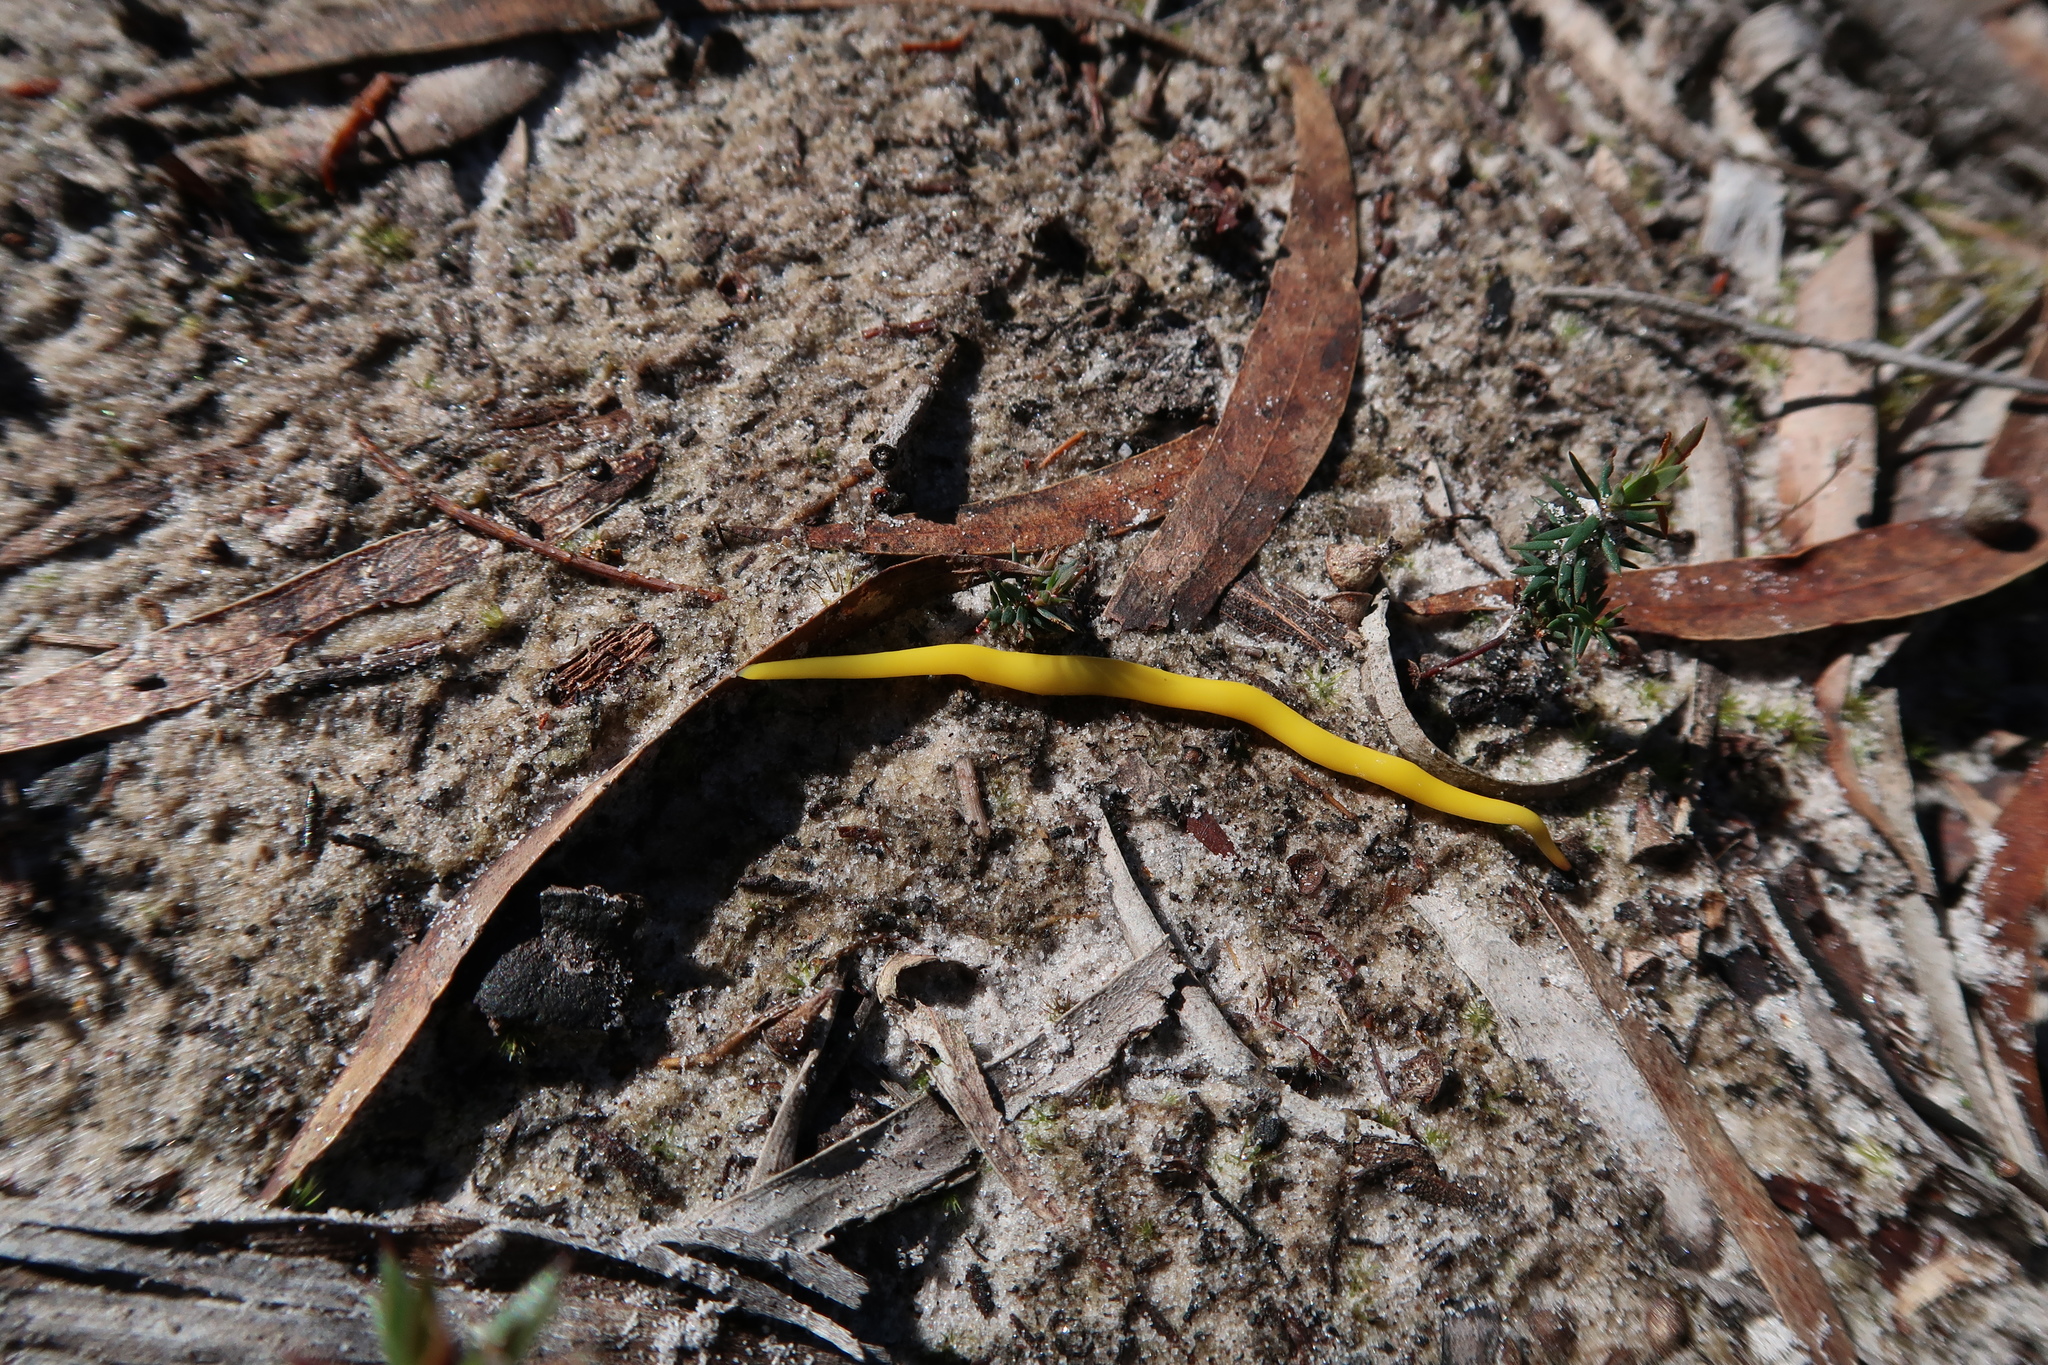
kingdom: Animalia
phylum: Platyhelminthes
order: Tricladida
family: Geoplanidae
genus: Fletchamia
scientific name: Fletchamia sugdeni
